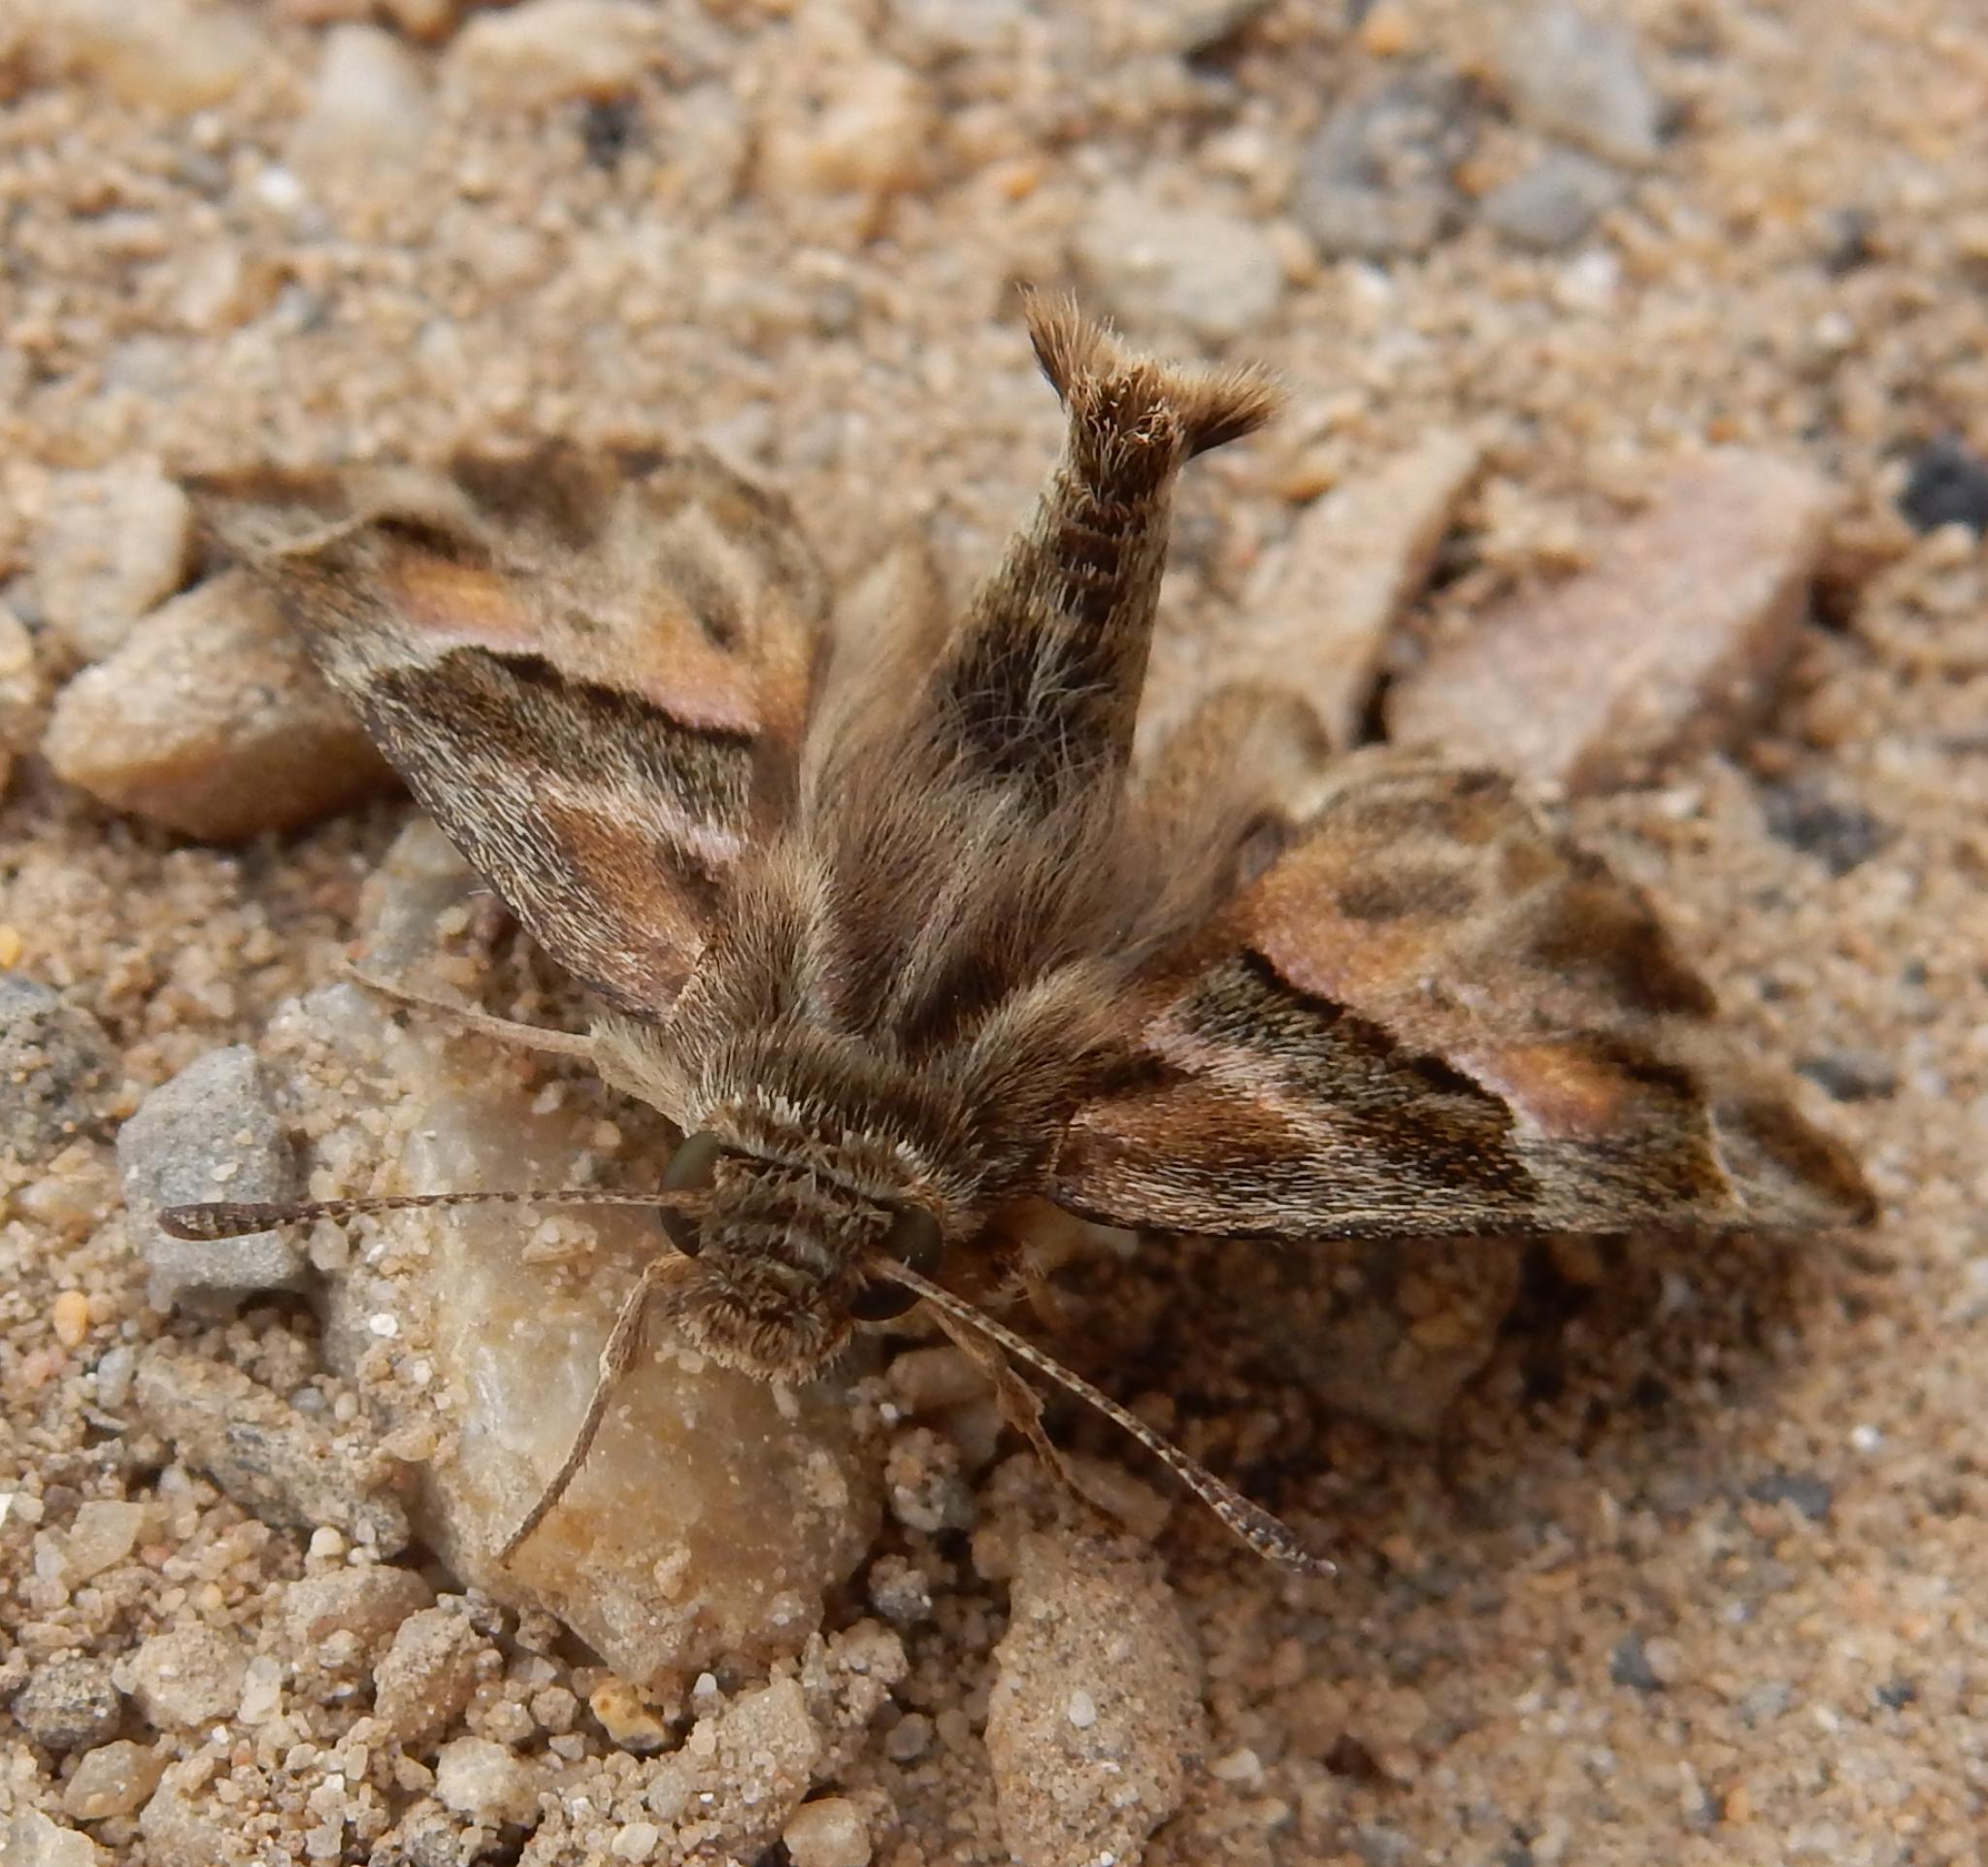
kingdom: Animalia
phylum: Arthropoda
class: Insecta
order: Lepidoptera
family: Hesperiidae
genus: Gomalia
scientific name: Gomalia elma
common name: Green-marbled skipper
